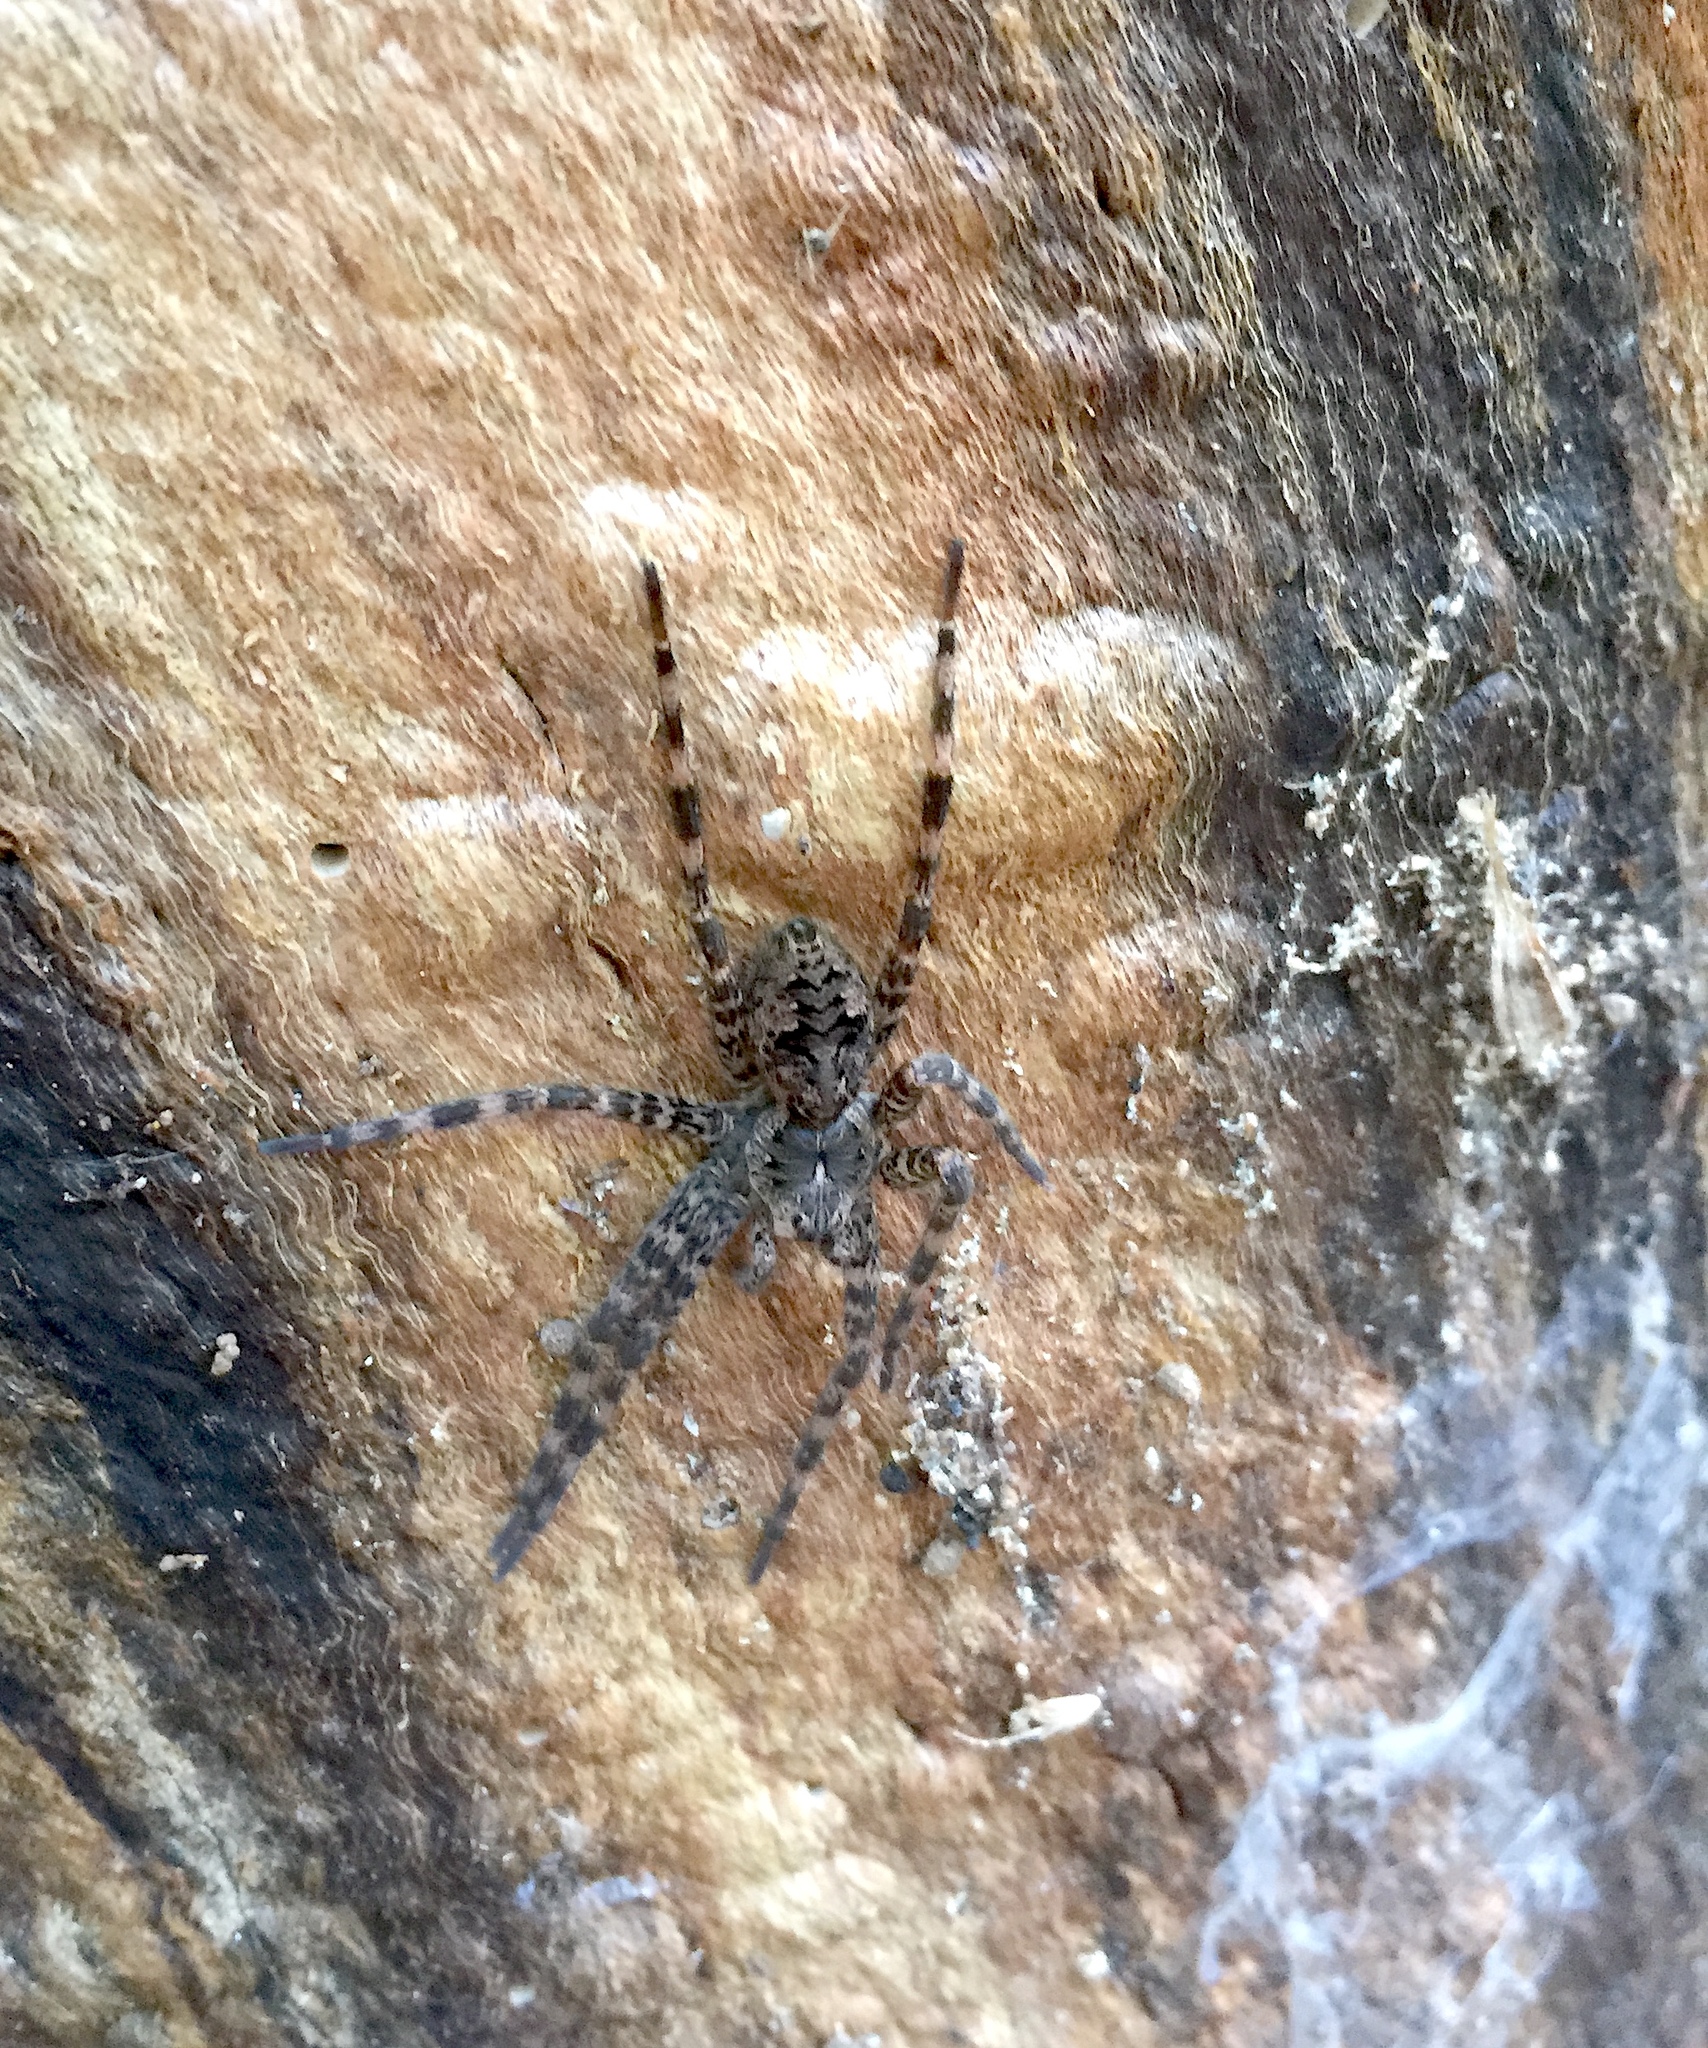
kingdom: Animalia
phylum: Arthropoda
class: Arachnida
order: Araneae
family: Pisauridae
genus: Dolomedes
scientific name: Dolomedes tenebrosus
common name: Dark fishing spider
